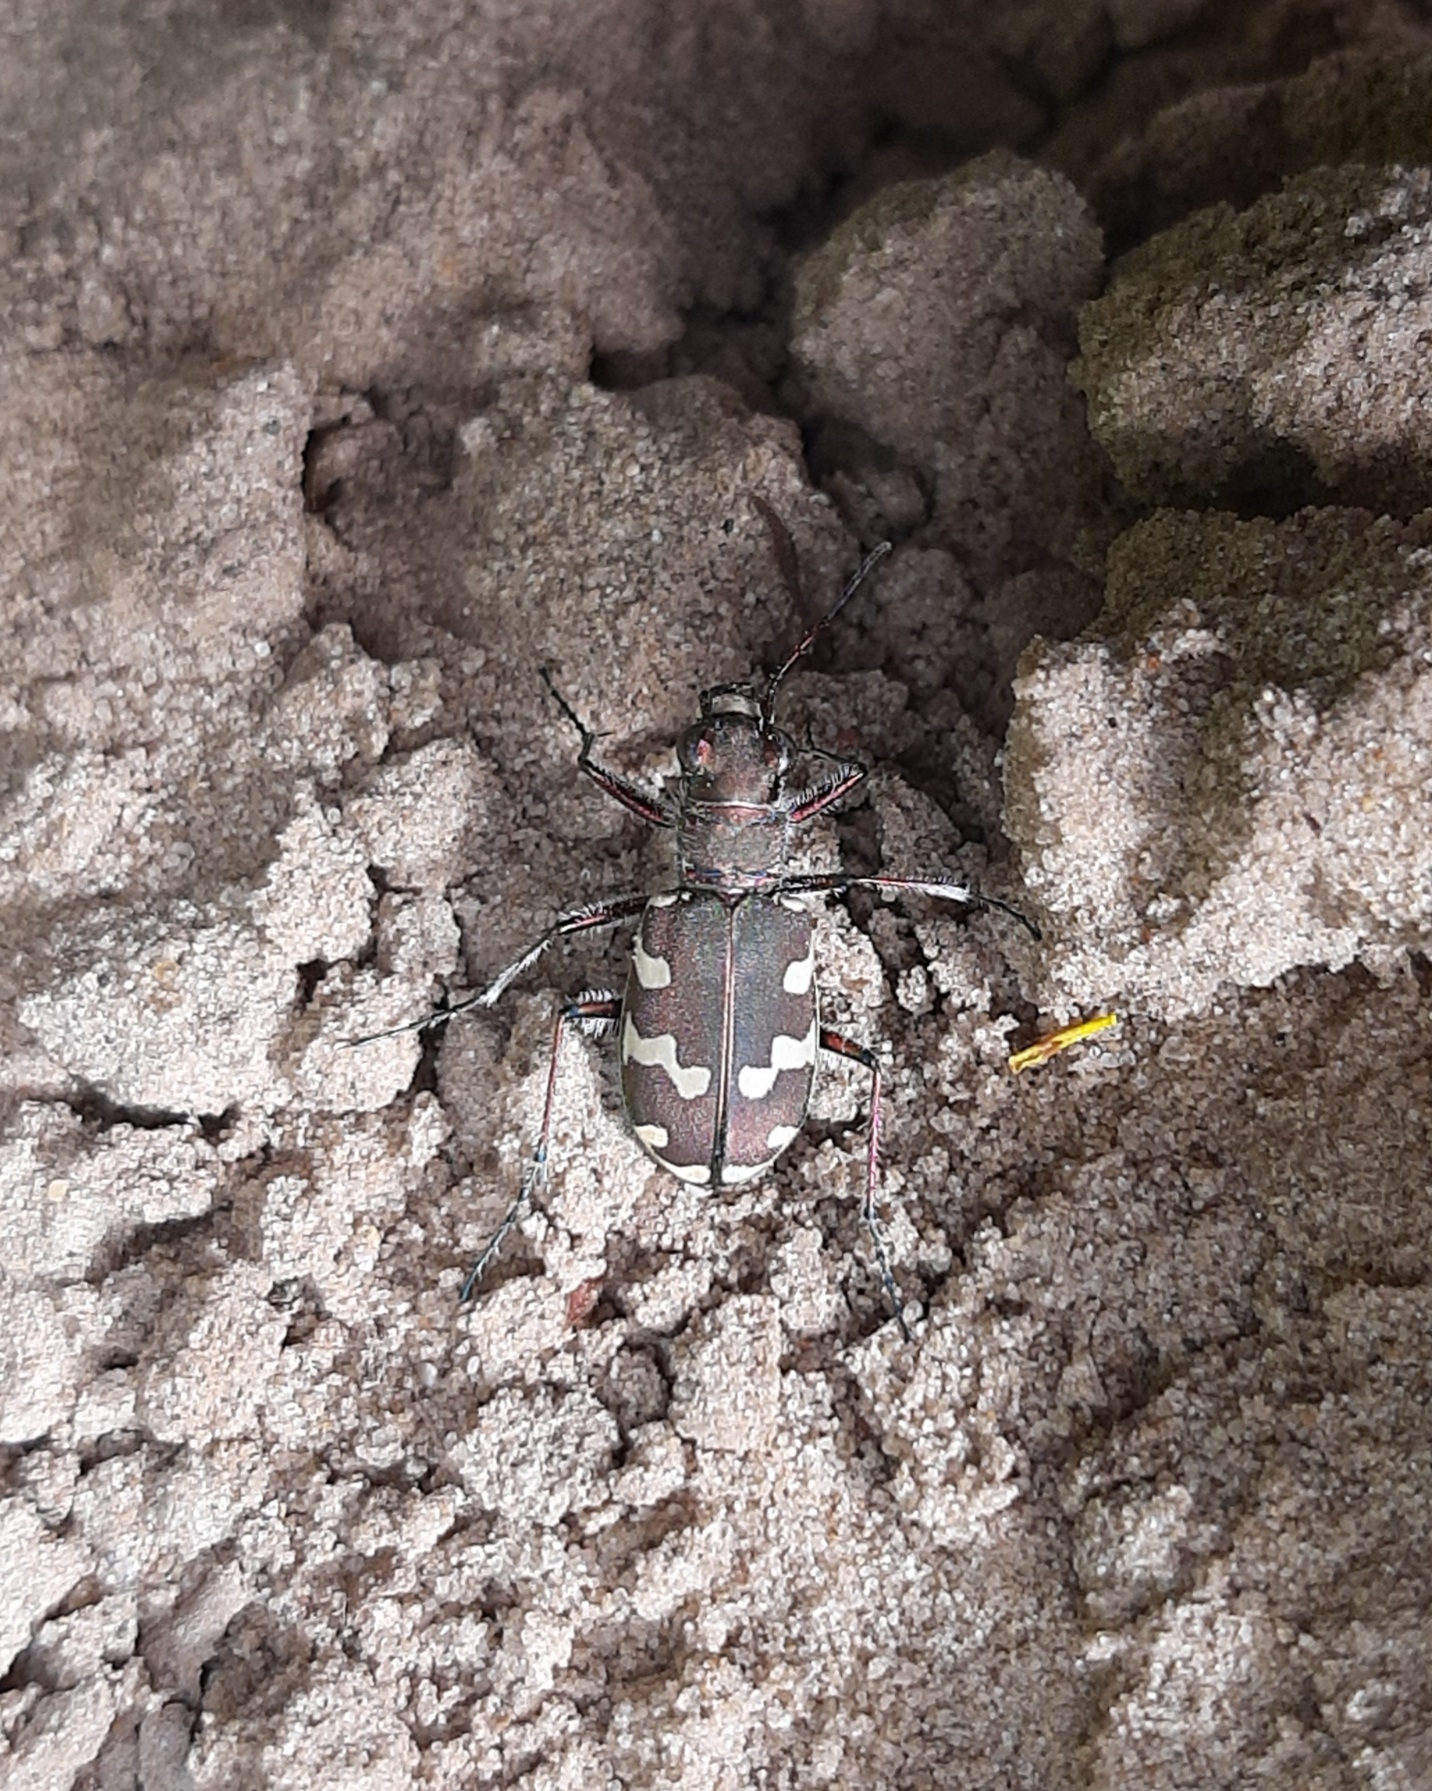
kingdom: Animalia
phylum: Arthropoda
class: Insecta
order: Coleoptera
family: Carabidae
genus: Cicindela
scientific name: Cicindela hybrida
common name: Northern dune tiger beetle
